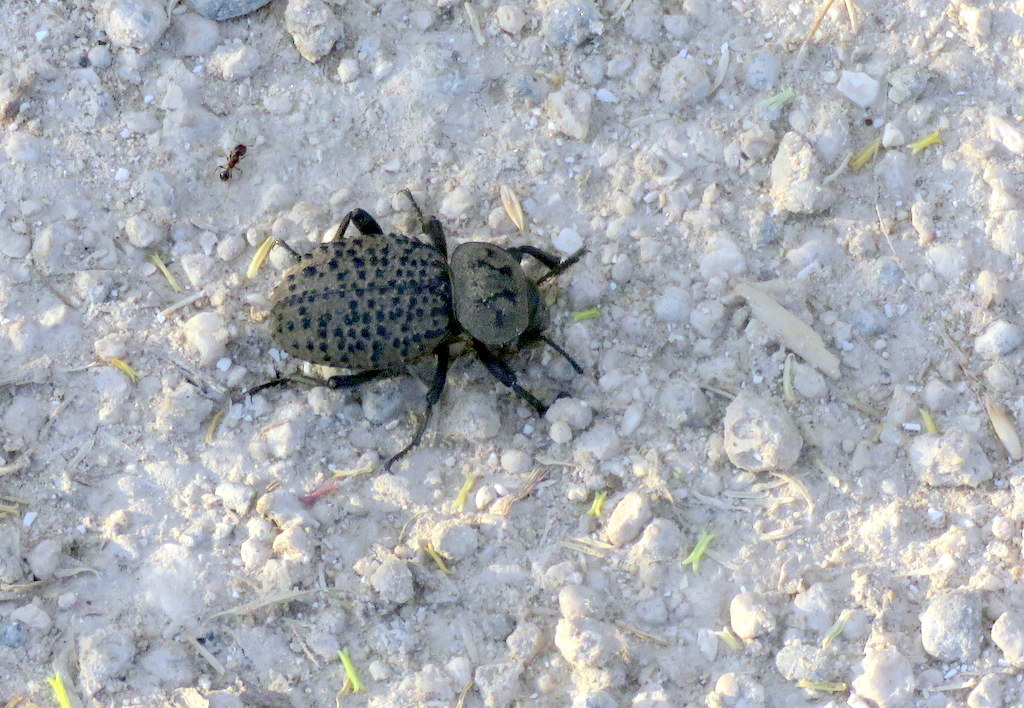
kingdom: Animalia
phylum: Arthropoda
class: Insecta
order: Coleoptera
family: Tenebrionidae
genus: Scotobius
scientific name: Scotobius pilularius
